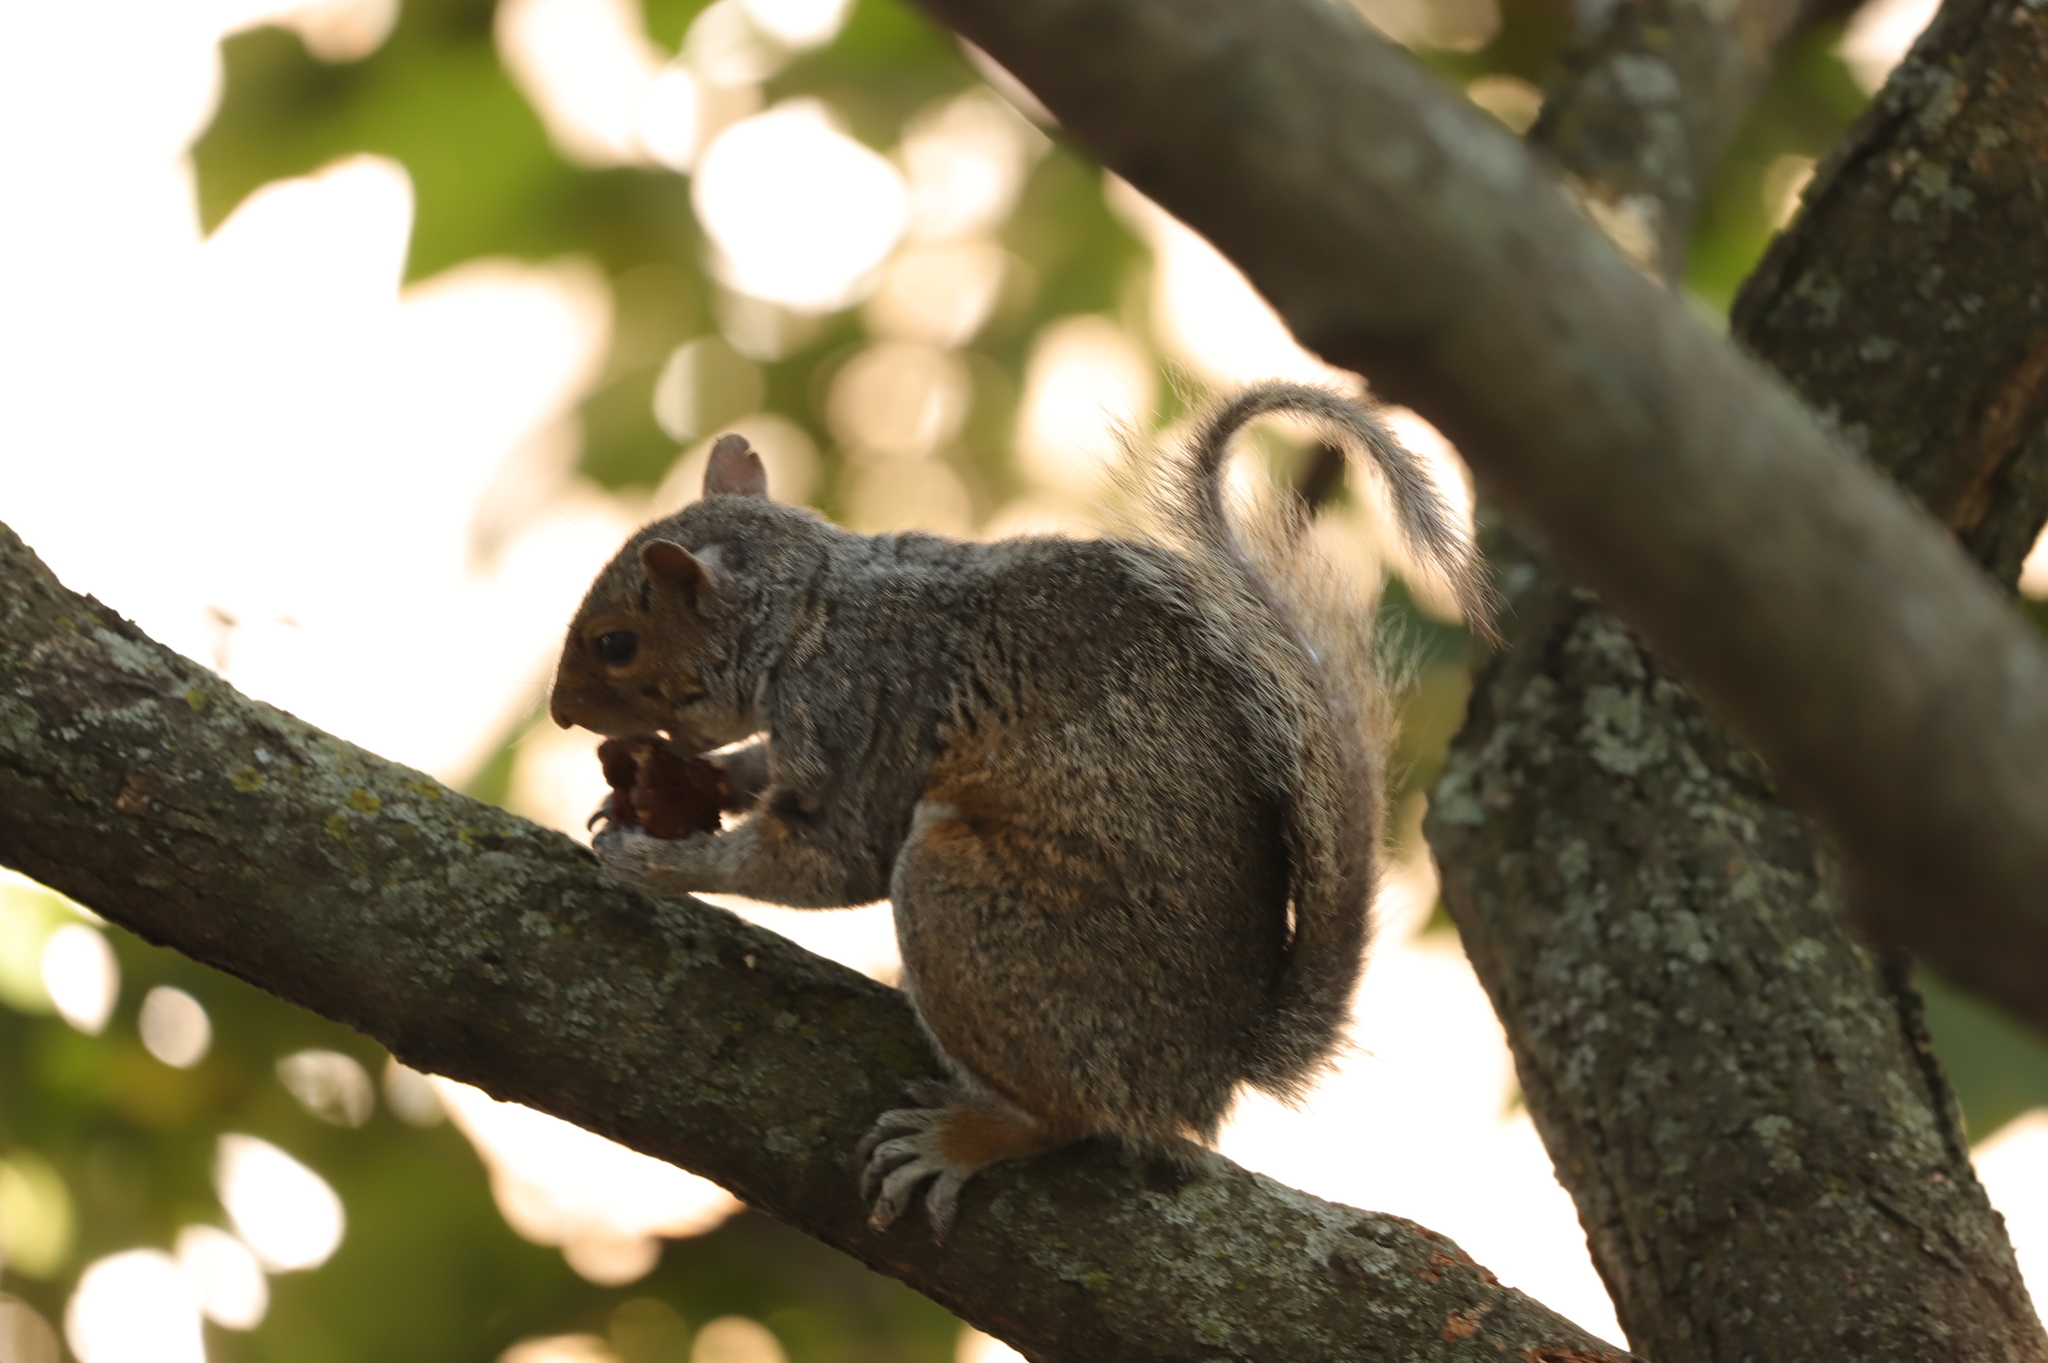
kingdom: Animalia
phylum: Chordata
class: Mammalia
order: Rodentia
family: Sciuridae
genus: Sciurus
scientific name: Sciurus carolinensis
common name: Eastern gray squirrel
